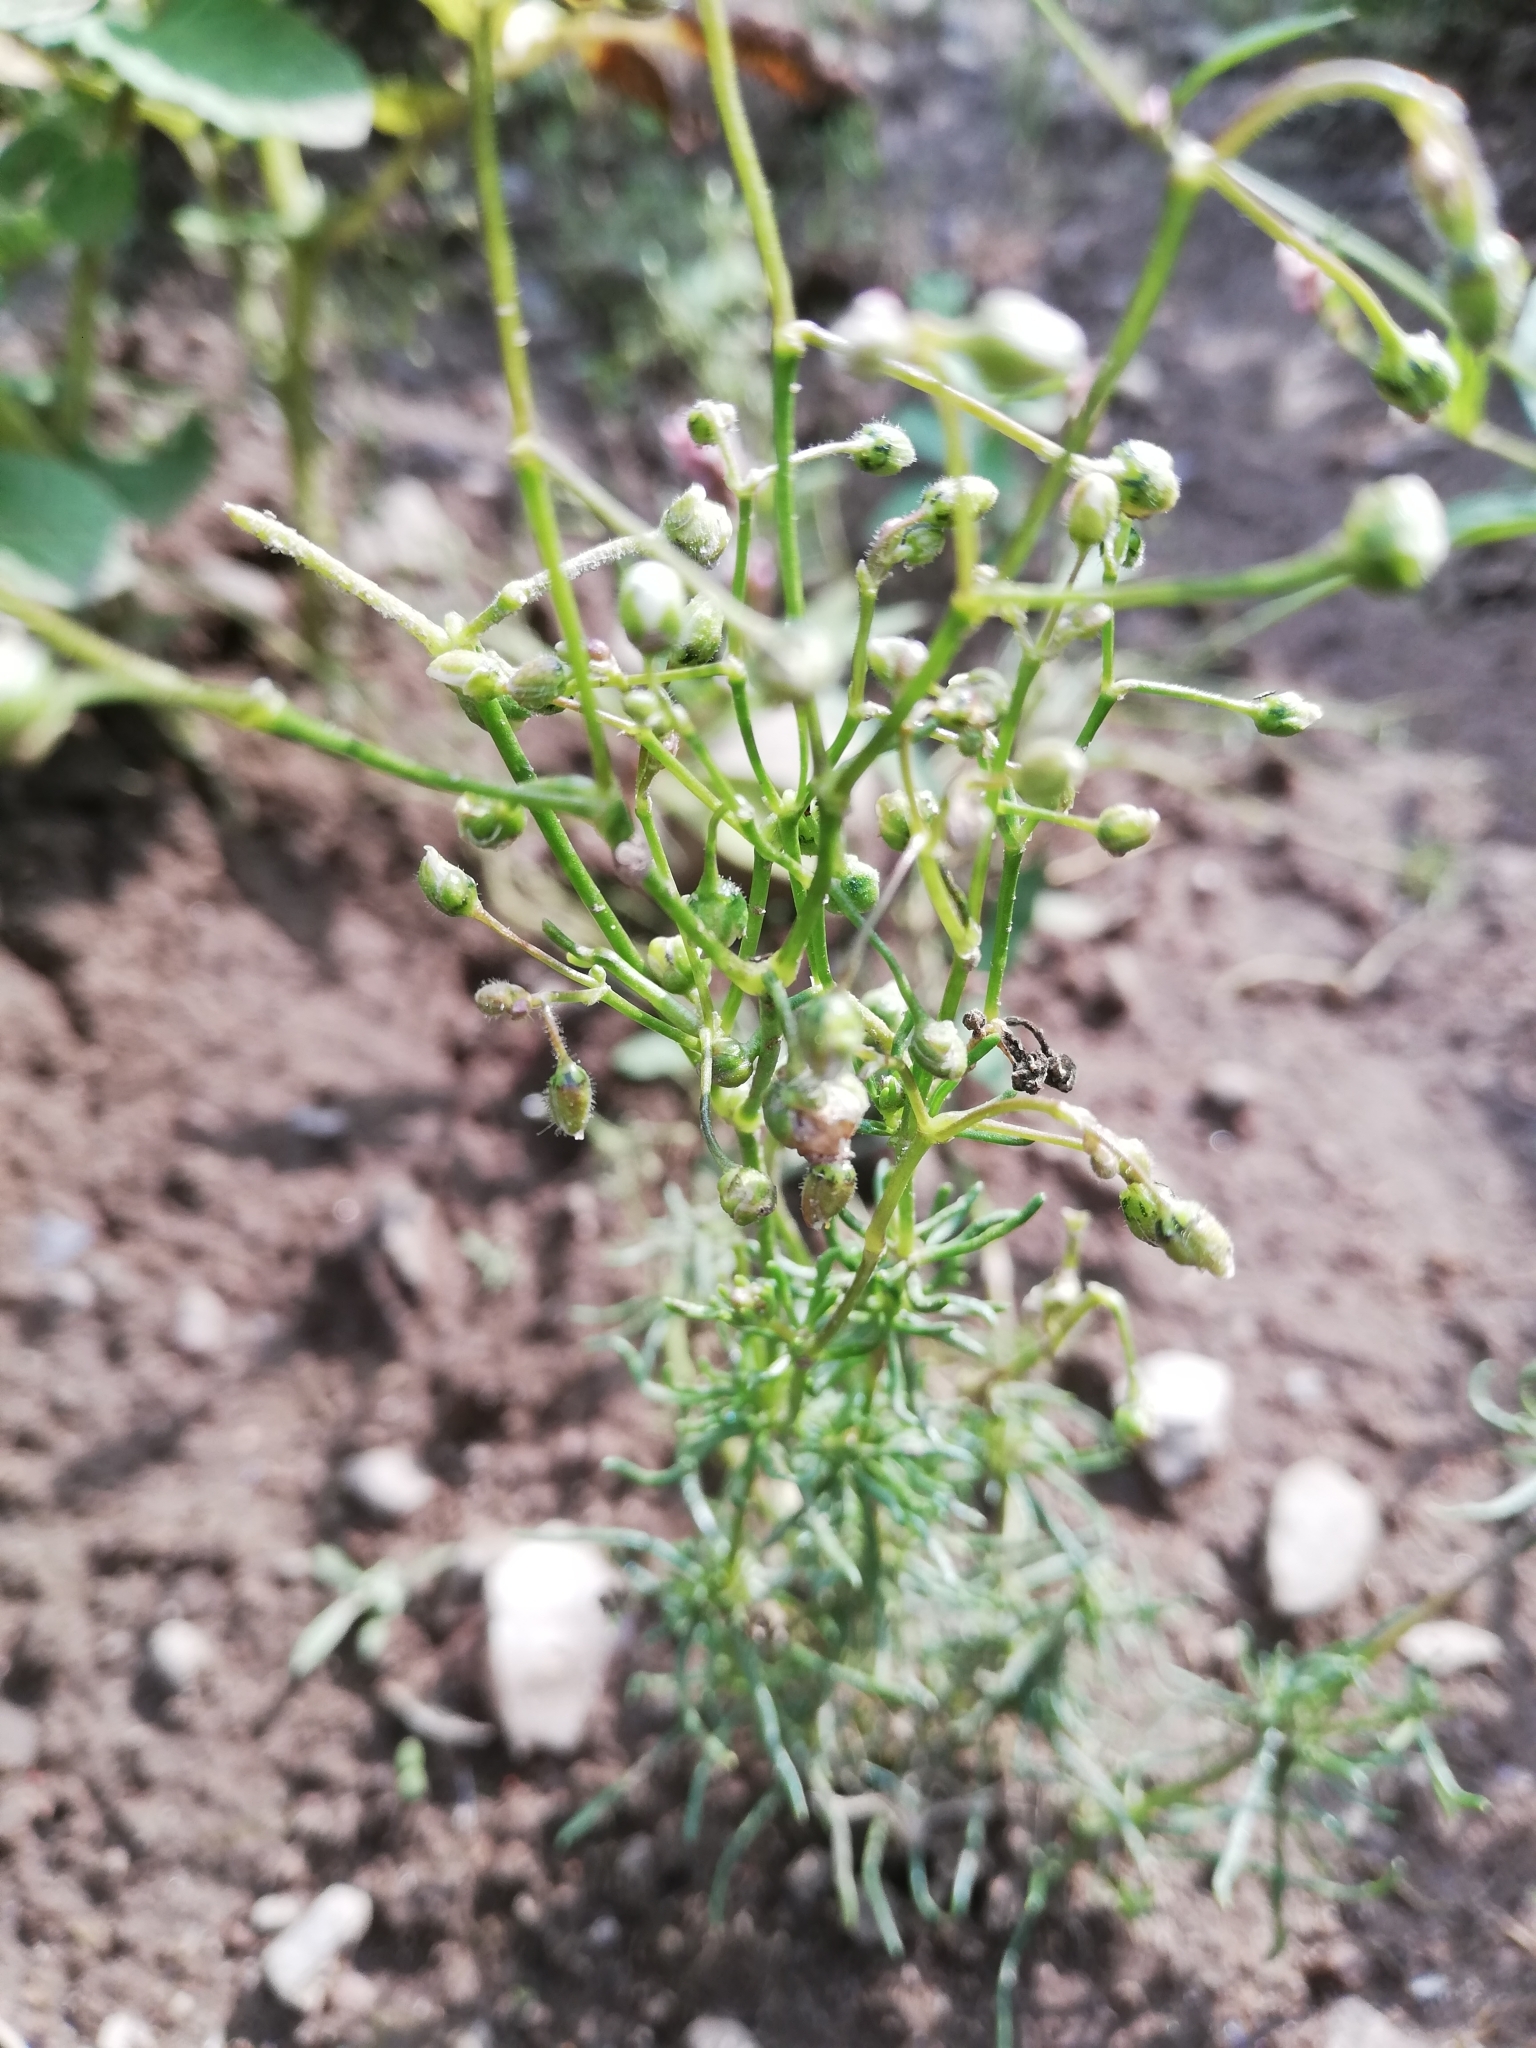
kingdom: Plantae
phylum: Tracheophyta
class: Magnoliopsida
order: Caryophyllales
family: Caryophyllaceae
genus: Spergula
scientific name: Spergula arvensis
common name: Corn spurrey
